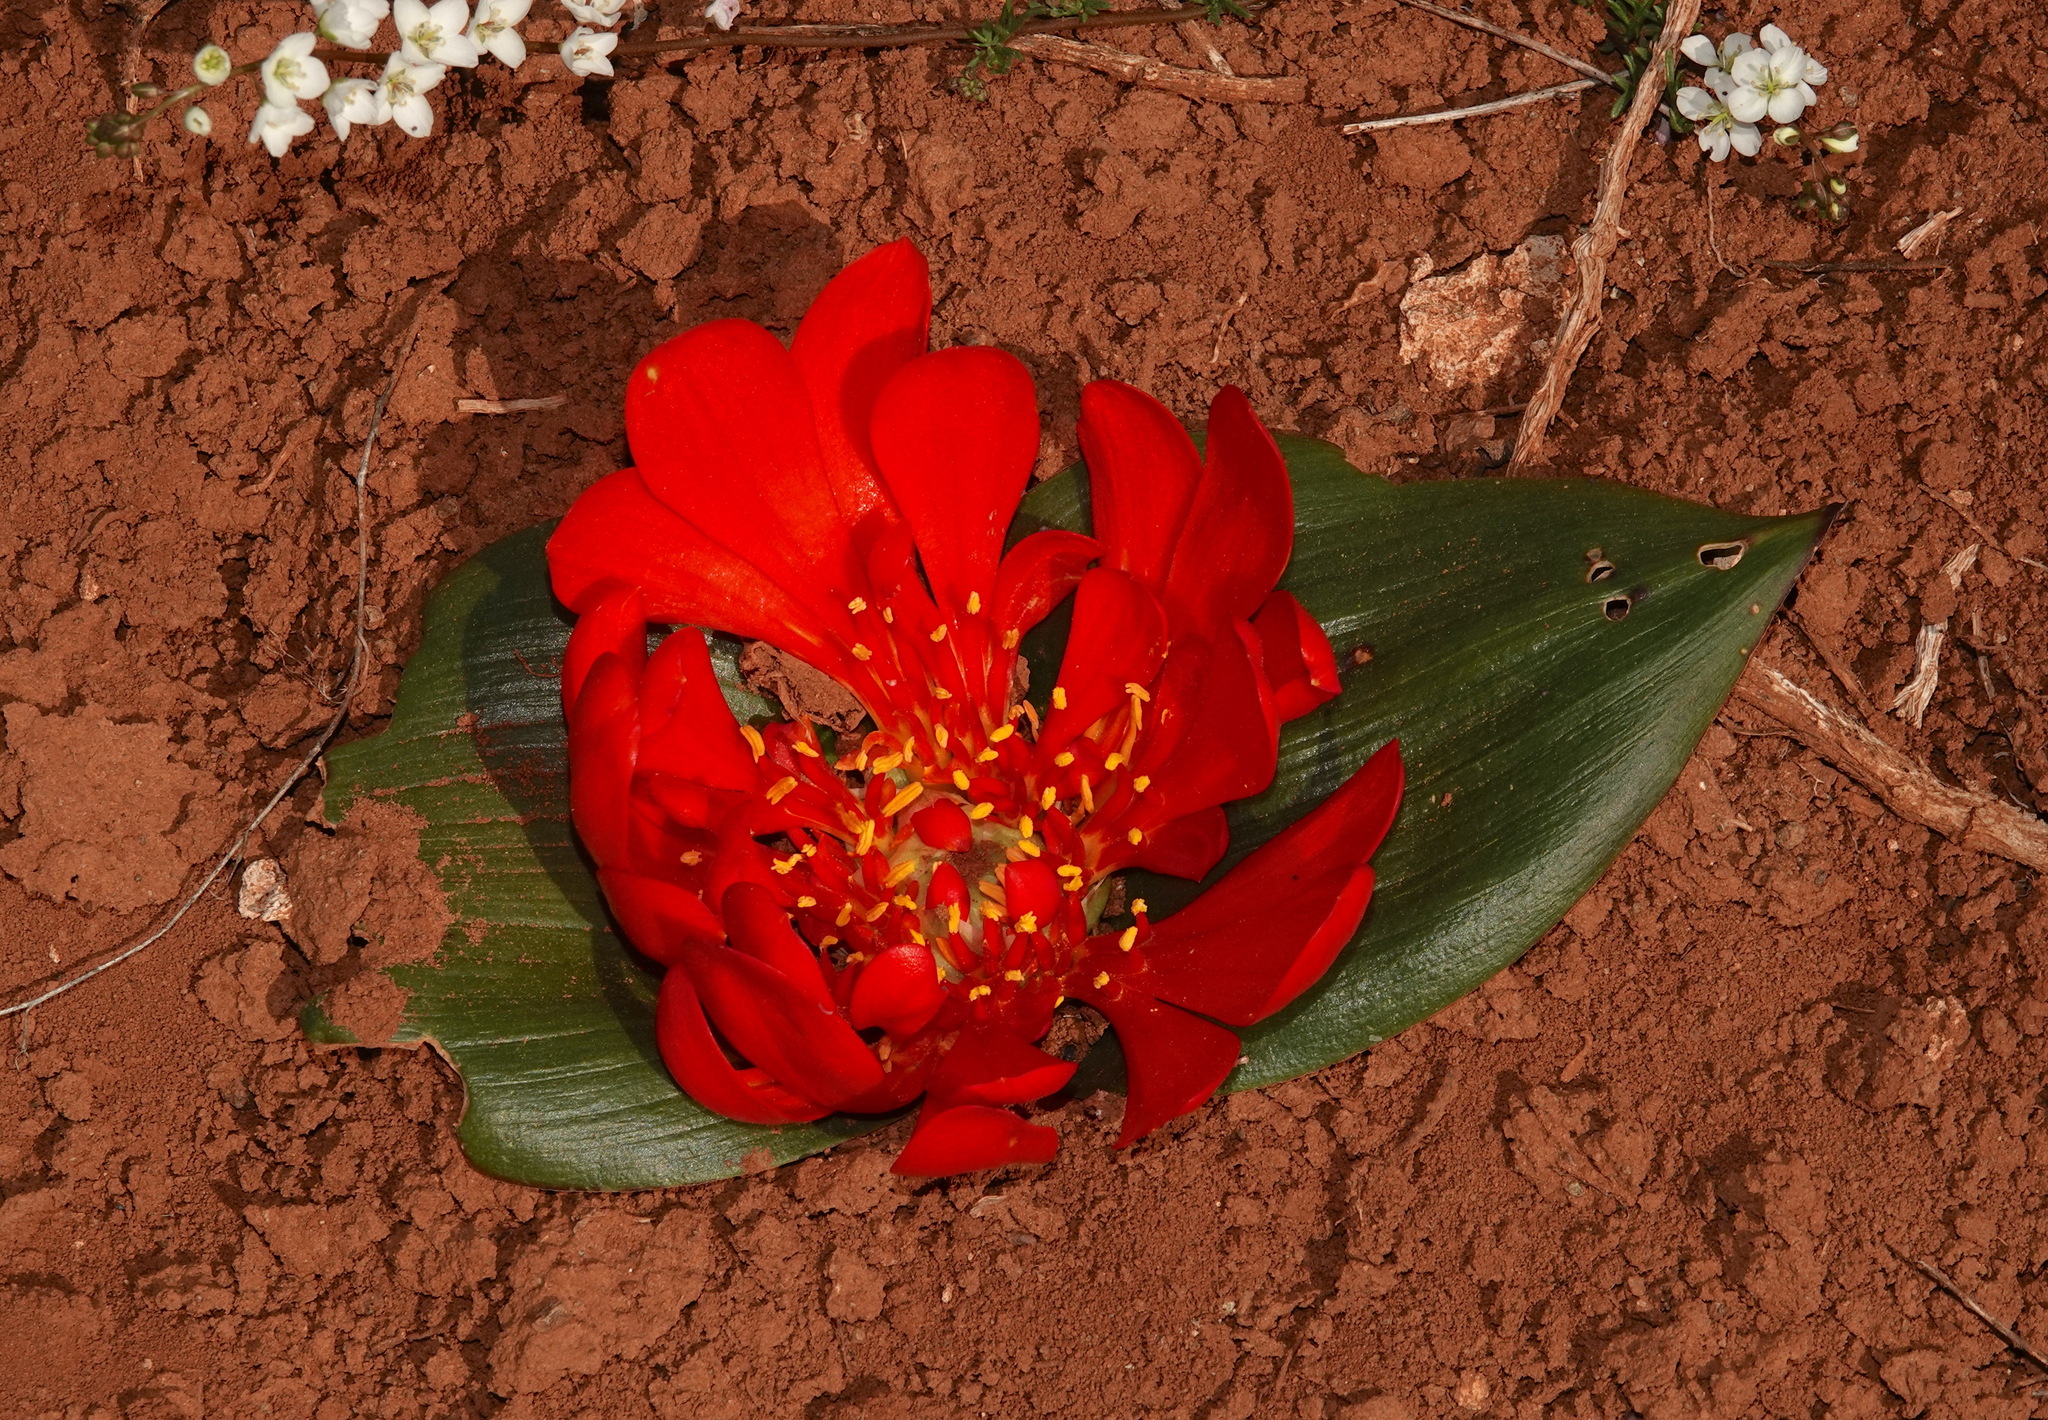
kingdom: Plantae
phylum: Tracheophyta
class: Liliopsida
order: Asparagales
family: Asparagaceae
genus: Daubenya
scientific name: Daubenya aurea
